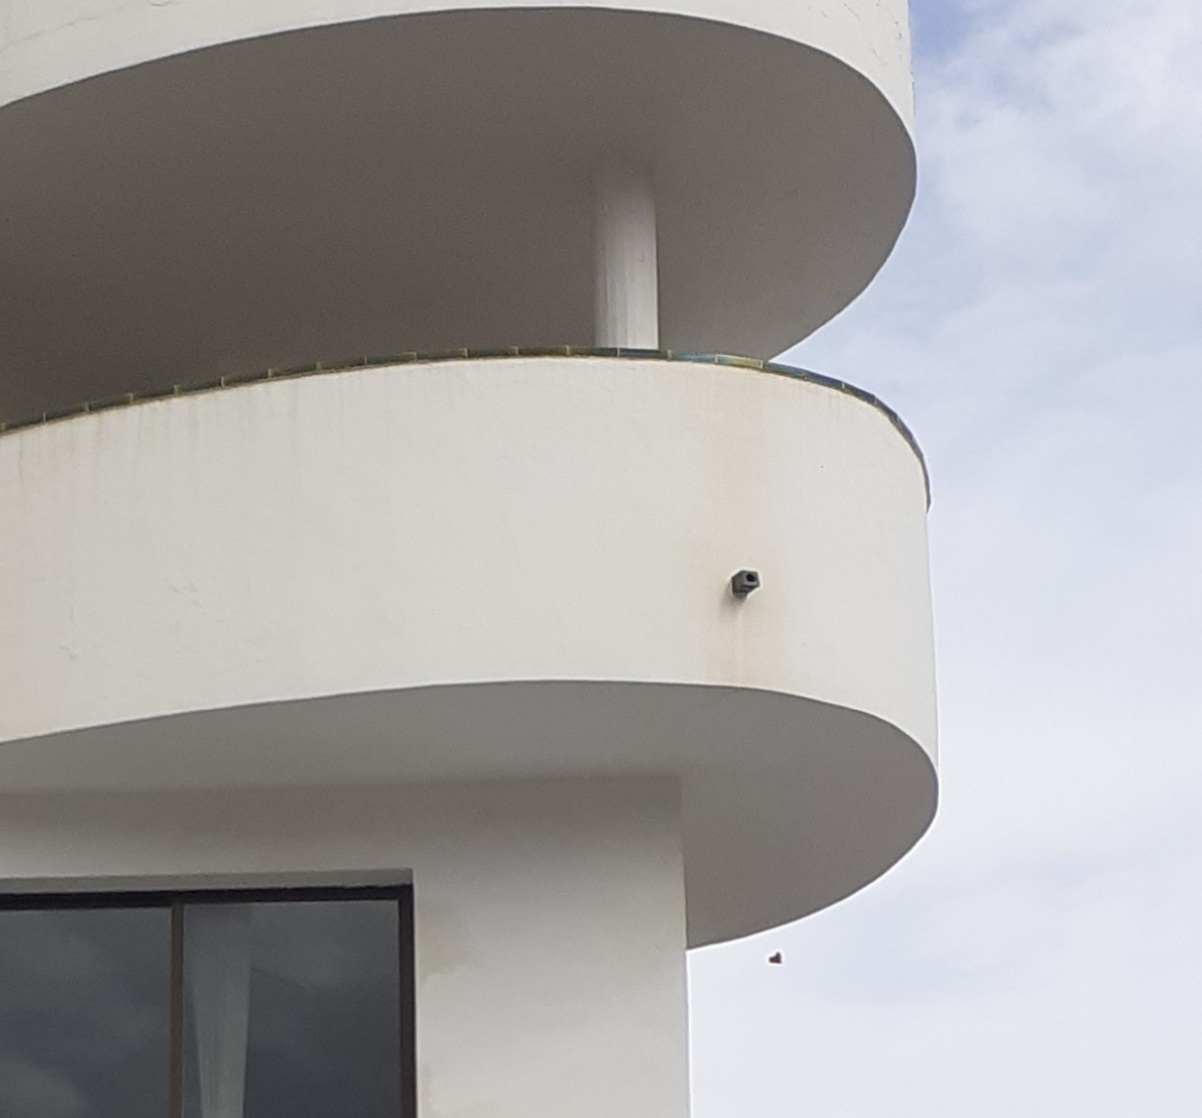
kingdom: Animalia
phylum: Arthropoda
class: Insecta
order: Lepidoptera
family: Nymphalidae
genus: Danaus
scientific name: Danaus plexippus
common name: Monarch
